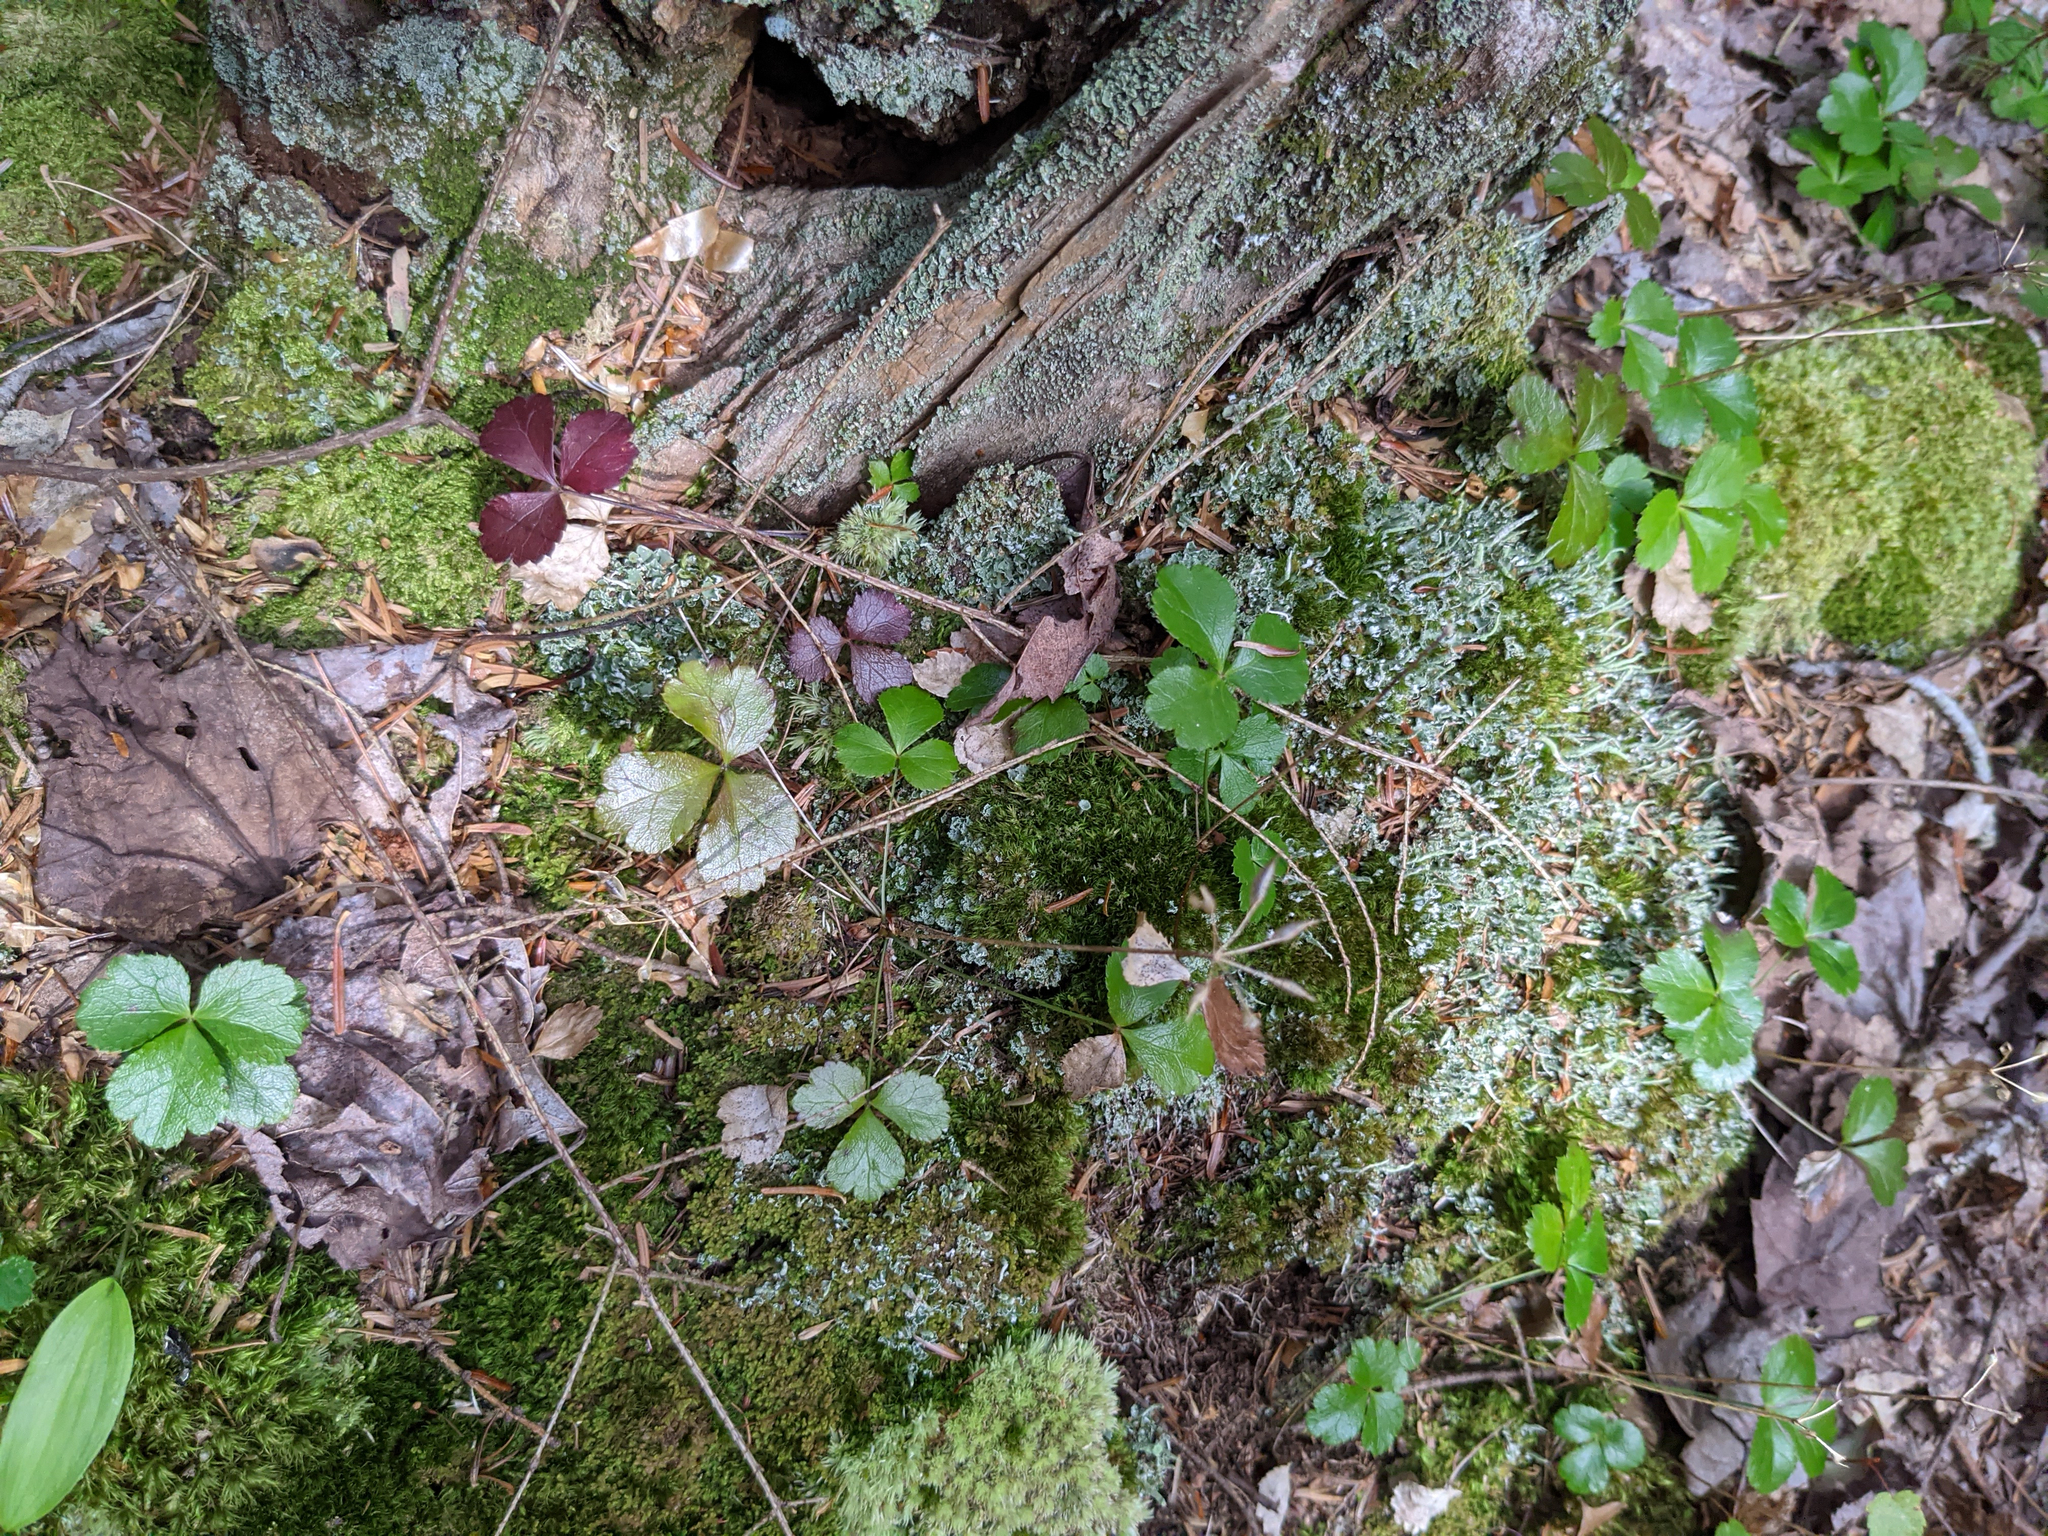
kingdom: Plantae
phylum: Tracheophyta
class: Magnoliopsida
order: Ranunculales
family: Ranunculaceae
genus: Coptis
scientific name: Coptis trifolia
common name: Canker-root
